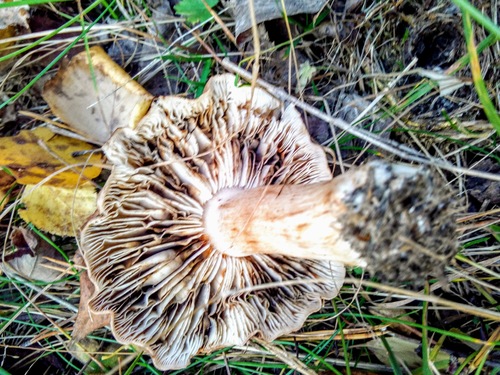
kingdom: Fungi
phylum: Basidiomycota
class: Agaricomycetes
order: Agaricales
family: Tricholomataceae
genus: Tricholoma
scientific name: Tricholoma fulvum
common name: Birch knight
